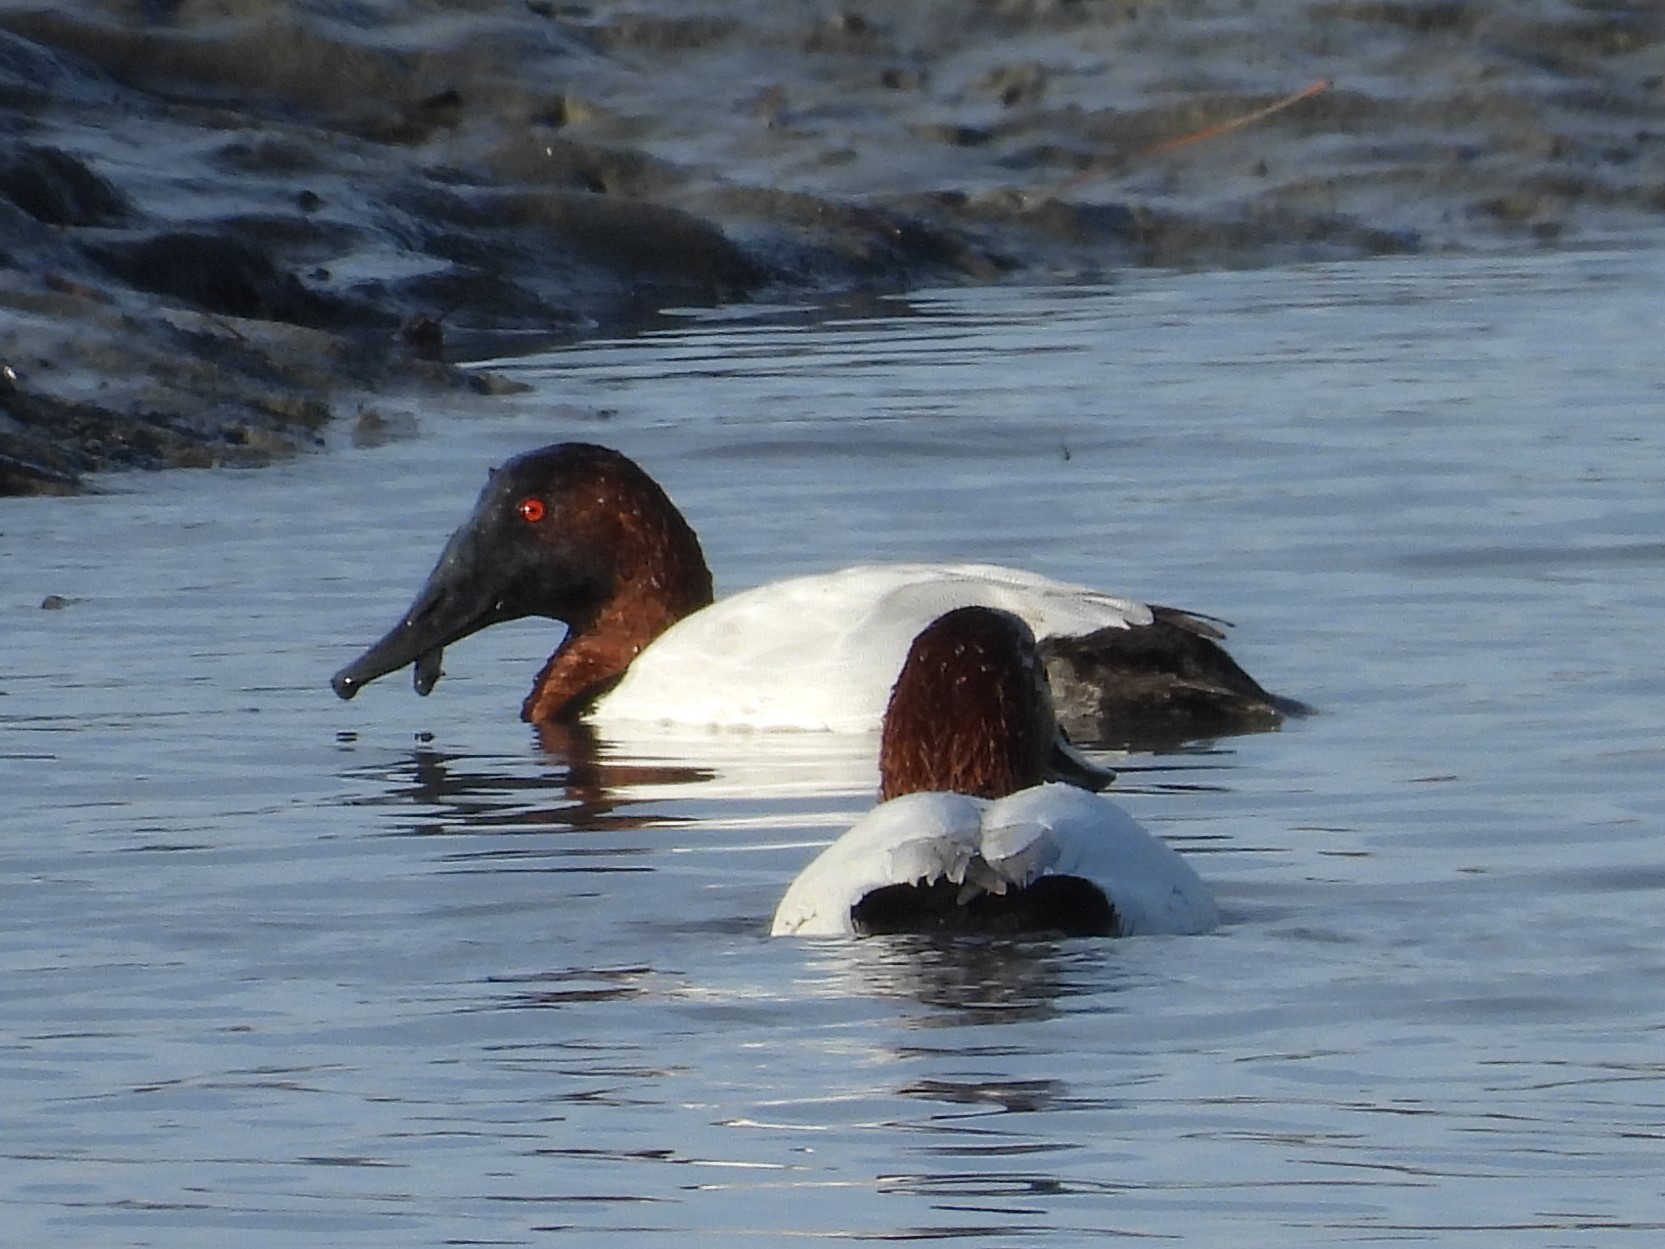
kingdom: Animalia
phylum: Chordata
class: Aves
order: Anseriformes
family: Anatidae
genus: Aythya
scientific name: Aythya valisineria
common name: Canvasback
